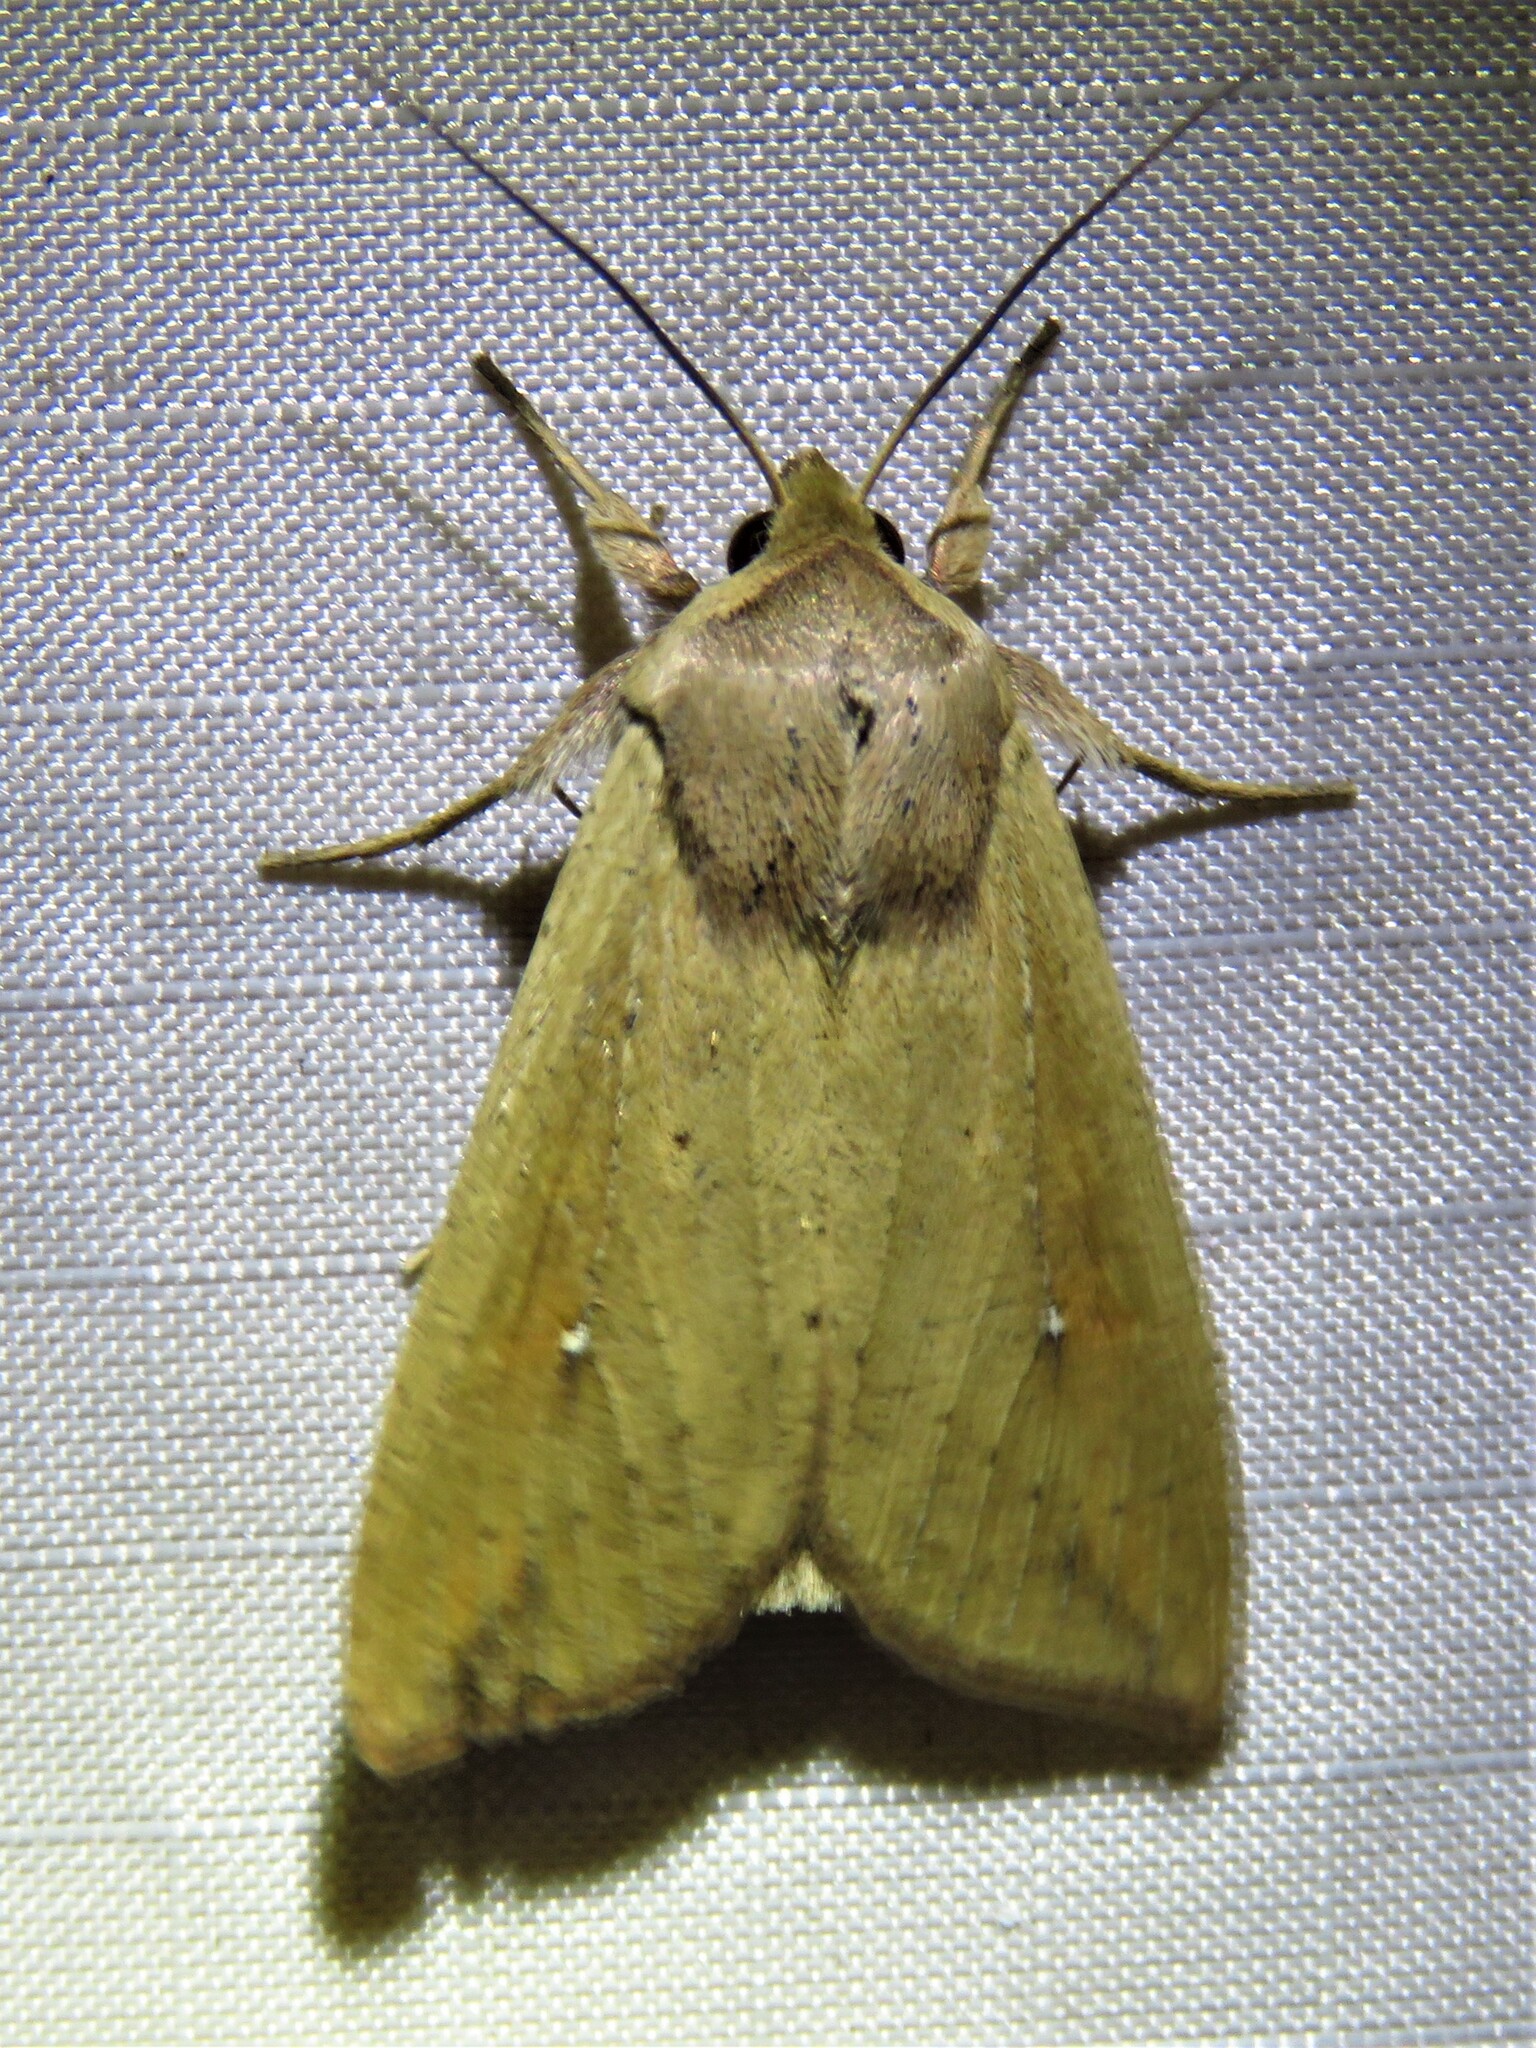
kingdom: Animalia
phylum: Arthropoda
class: Insecta
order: Lepidoptera
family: Noctuidae
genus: Mythimna
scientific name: Mythimna unipuncta
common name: White-speck
